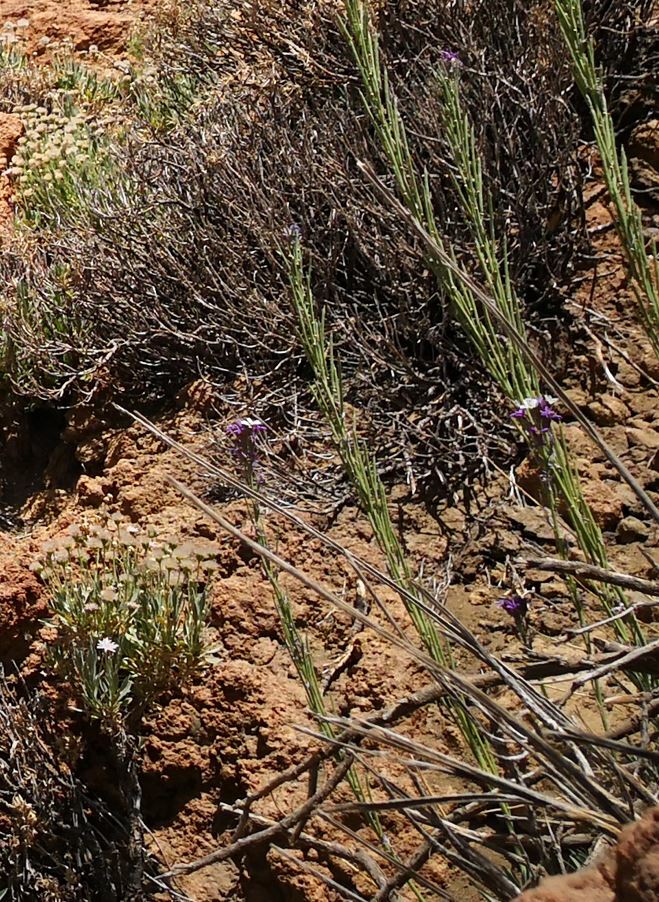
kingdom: Plantae
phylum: Tracheophyta
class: Magnoliopsida
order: Brassicales
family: Brassicaceae
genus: Erysimum
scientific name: Erysimum scoparium
